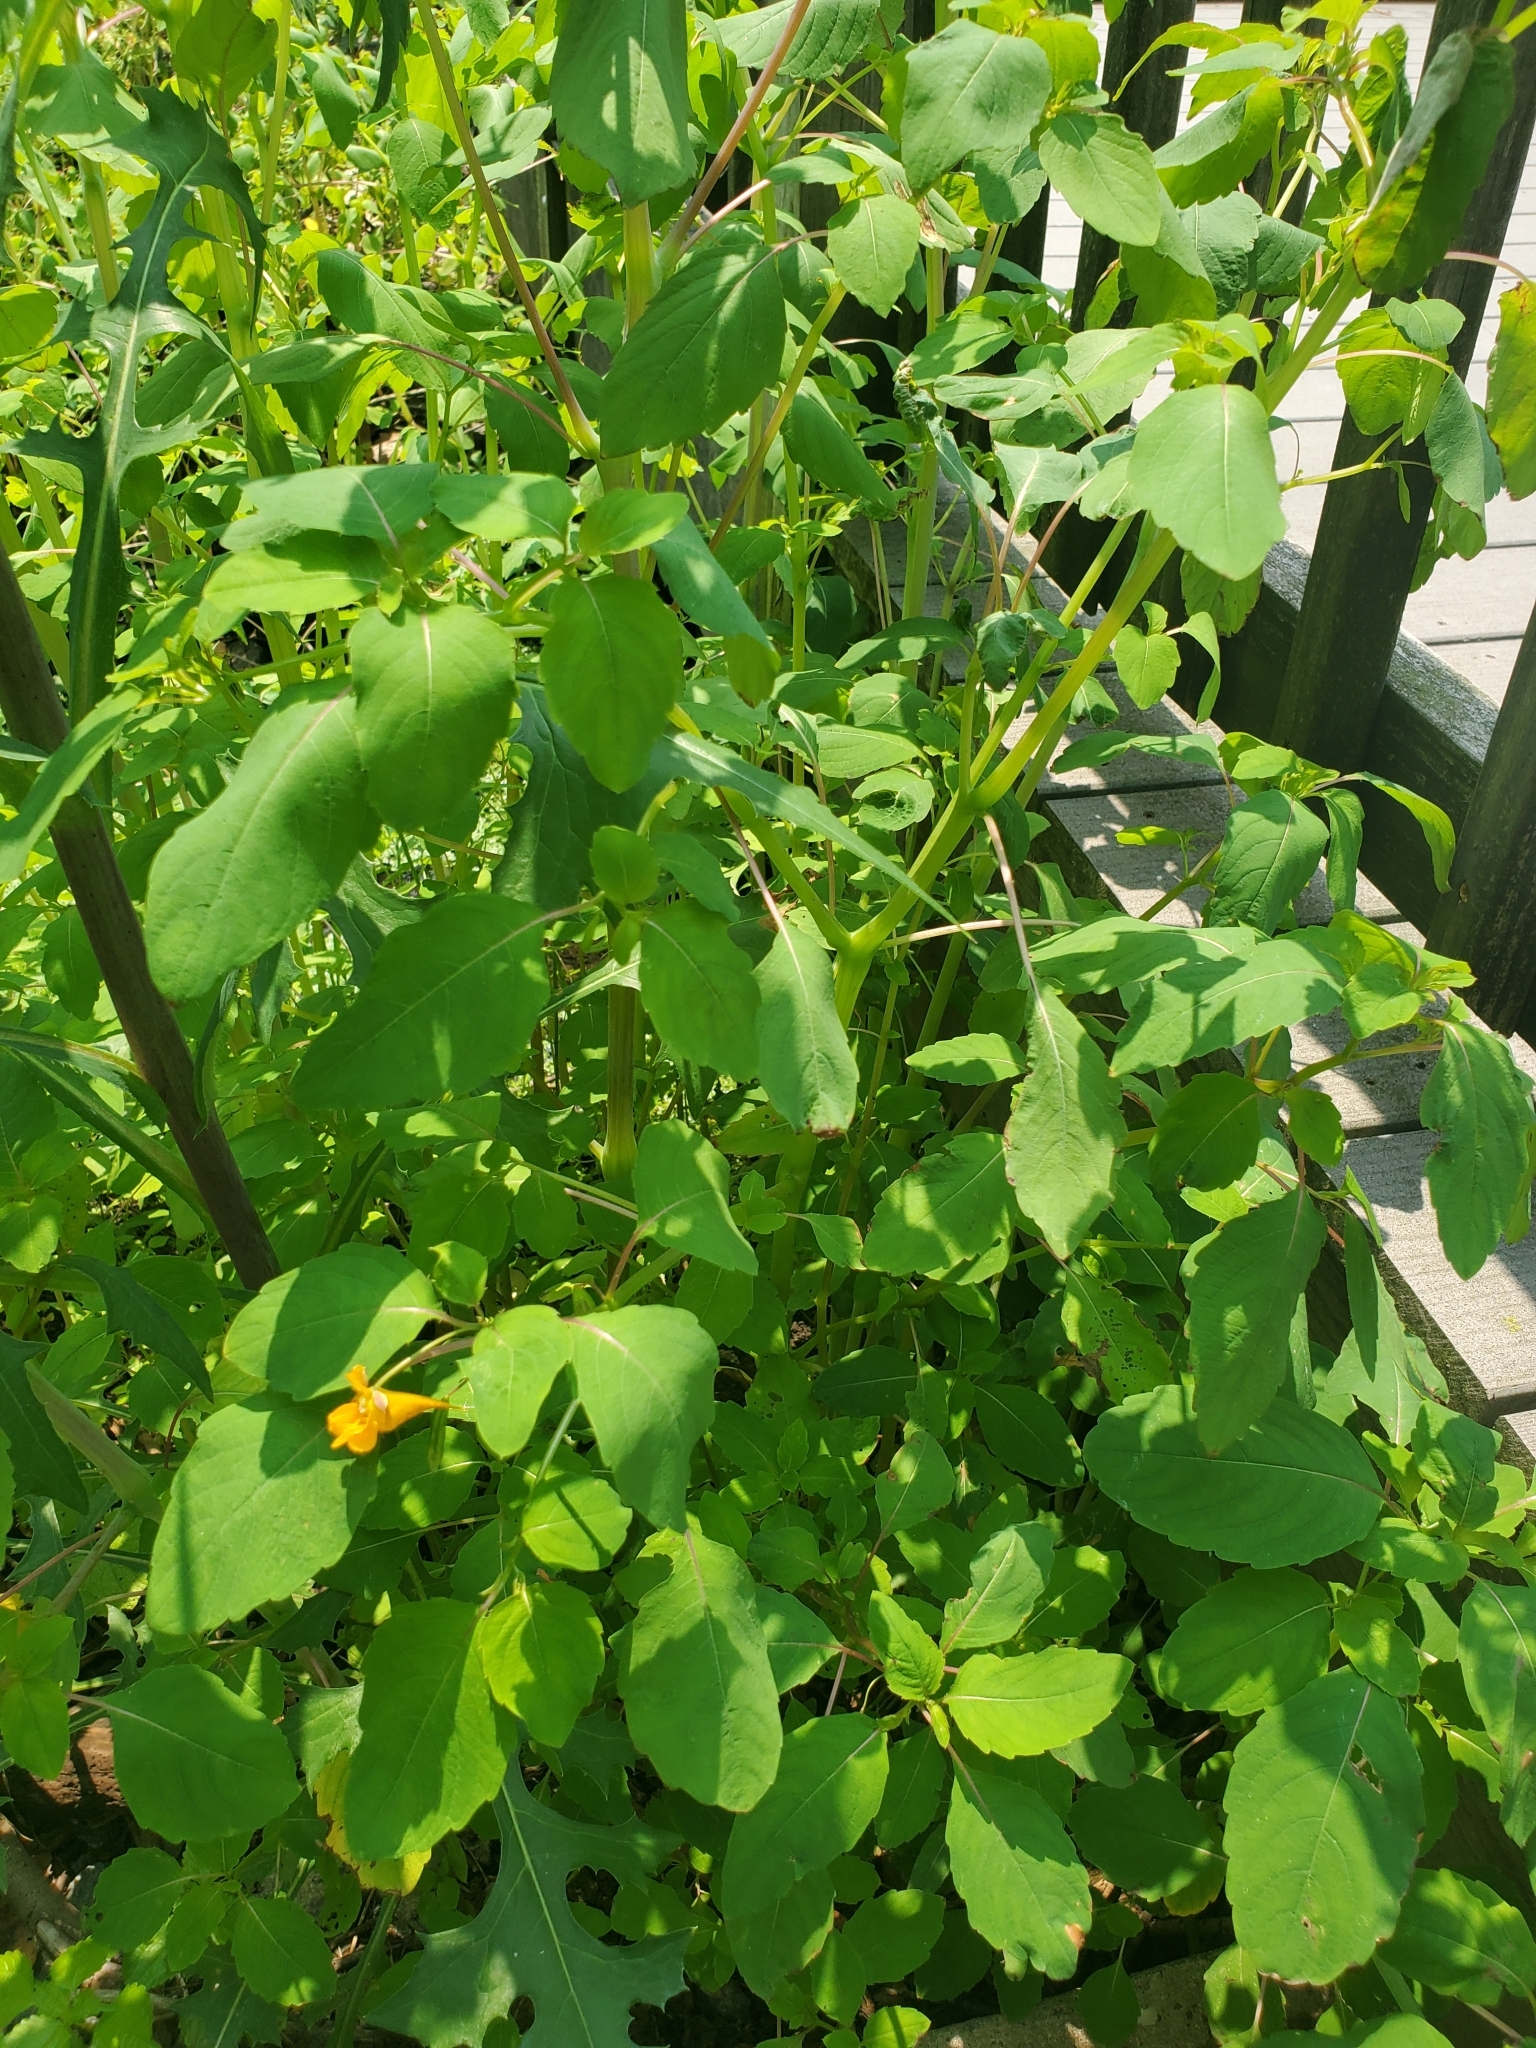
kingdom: Plantae
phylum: Tracheophyta
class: Magnoliopsida
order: Ericales
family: Balsaminaceae
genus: Impatiens
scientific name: Impatiens capensis
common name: Orange balsam
